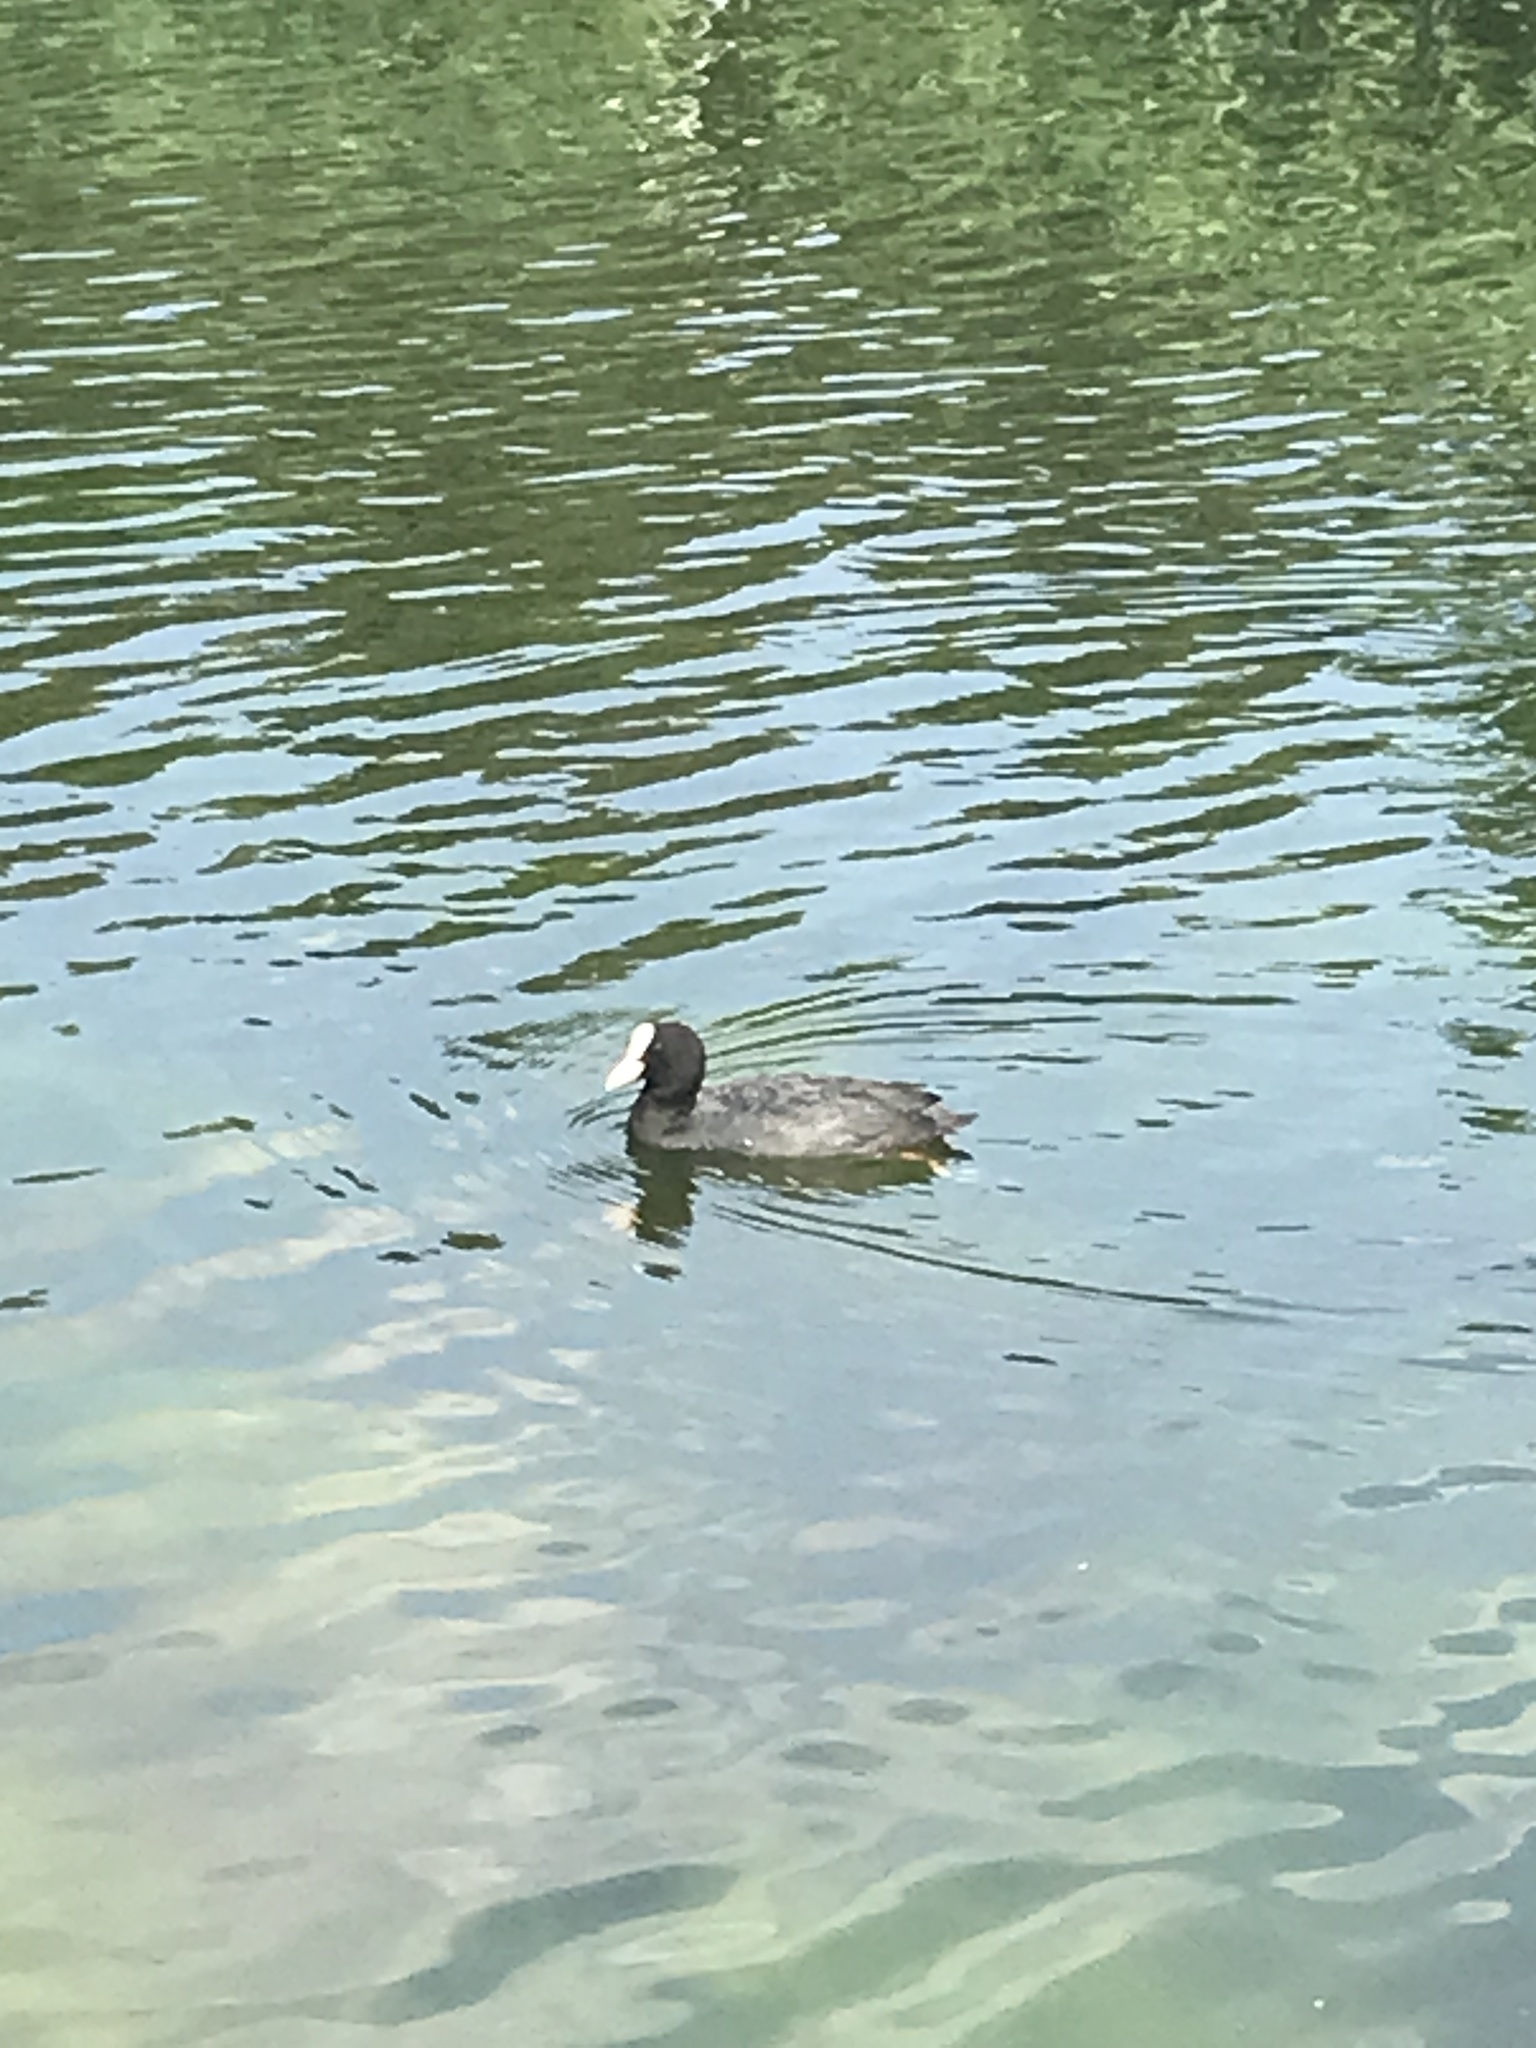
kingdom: Animalia
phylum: Chordata
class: Aves
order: Gruiformes
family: Rallidae
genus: Fulica
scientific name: Fulica atra
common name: Eurasian coot
